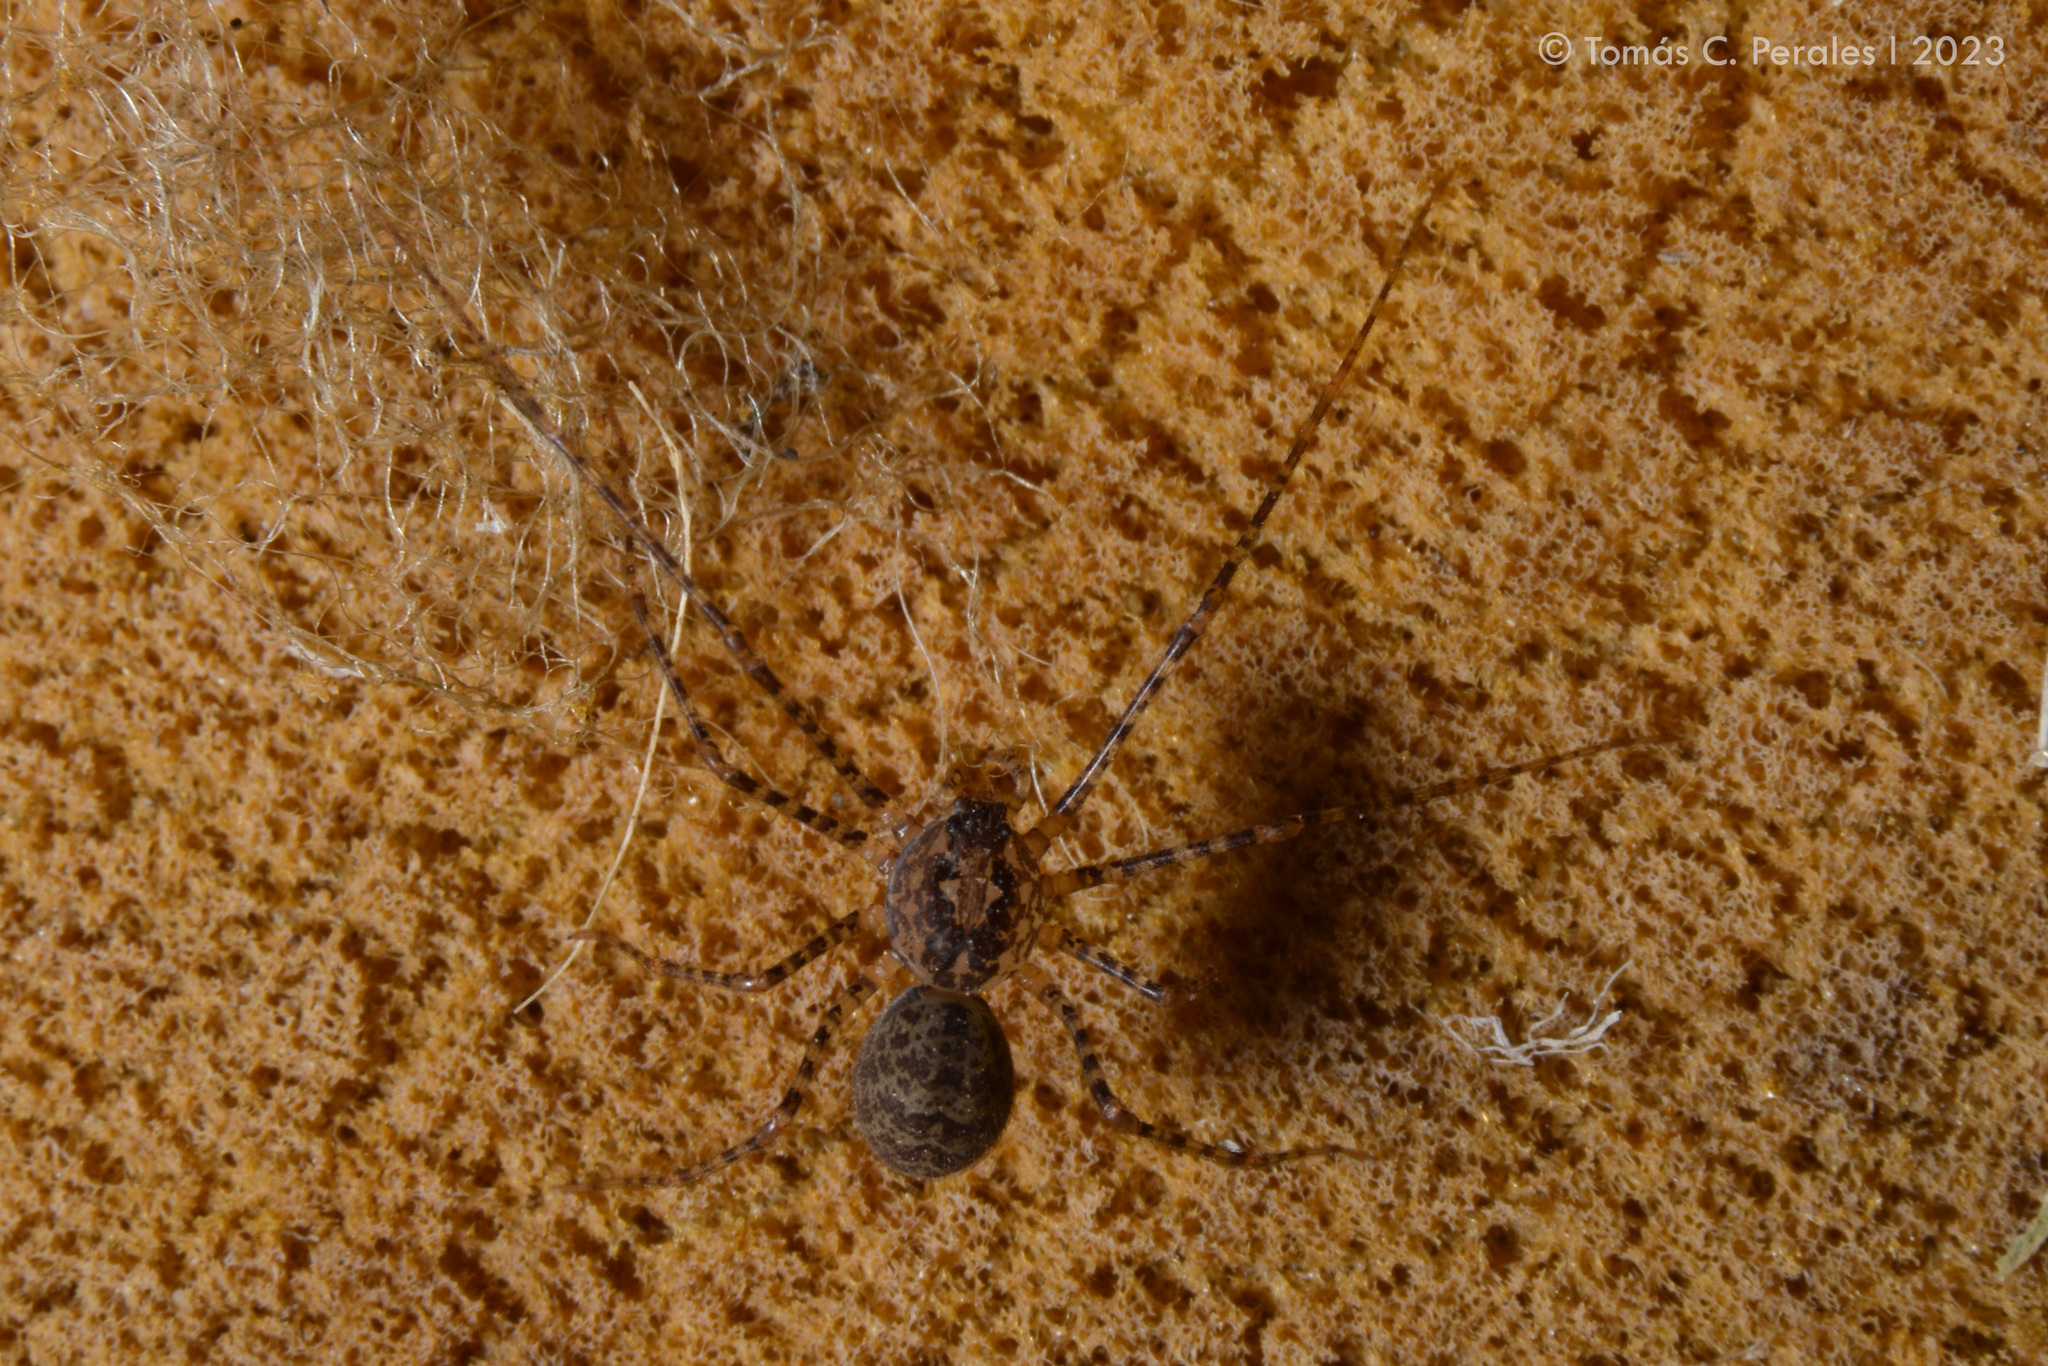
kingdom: Animalia
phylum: Arthropoda
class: Arachnida
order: Araneae
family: Scytodidae
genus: Scytodes
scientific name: Scytodes globula
